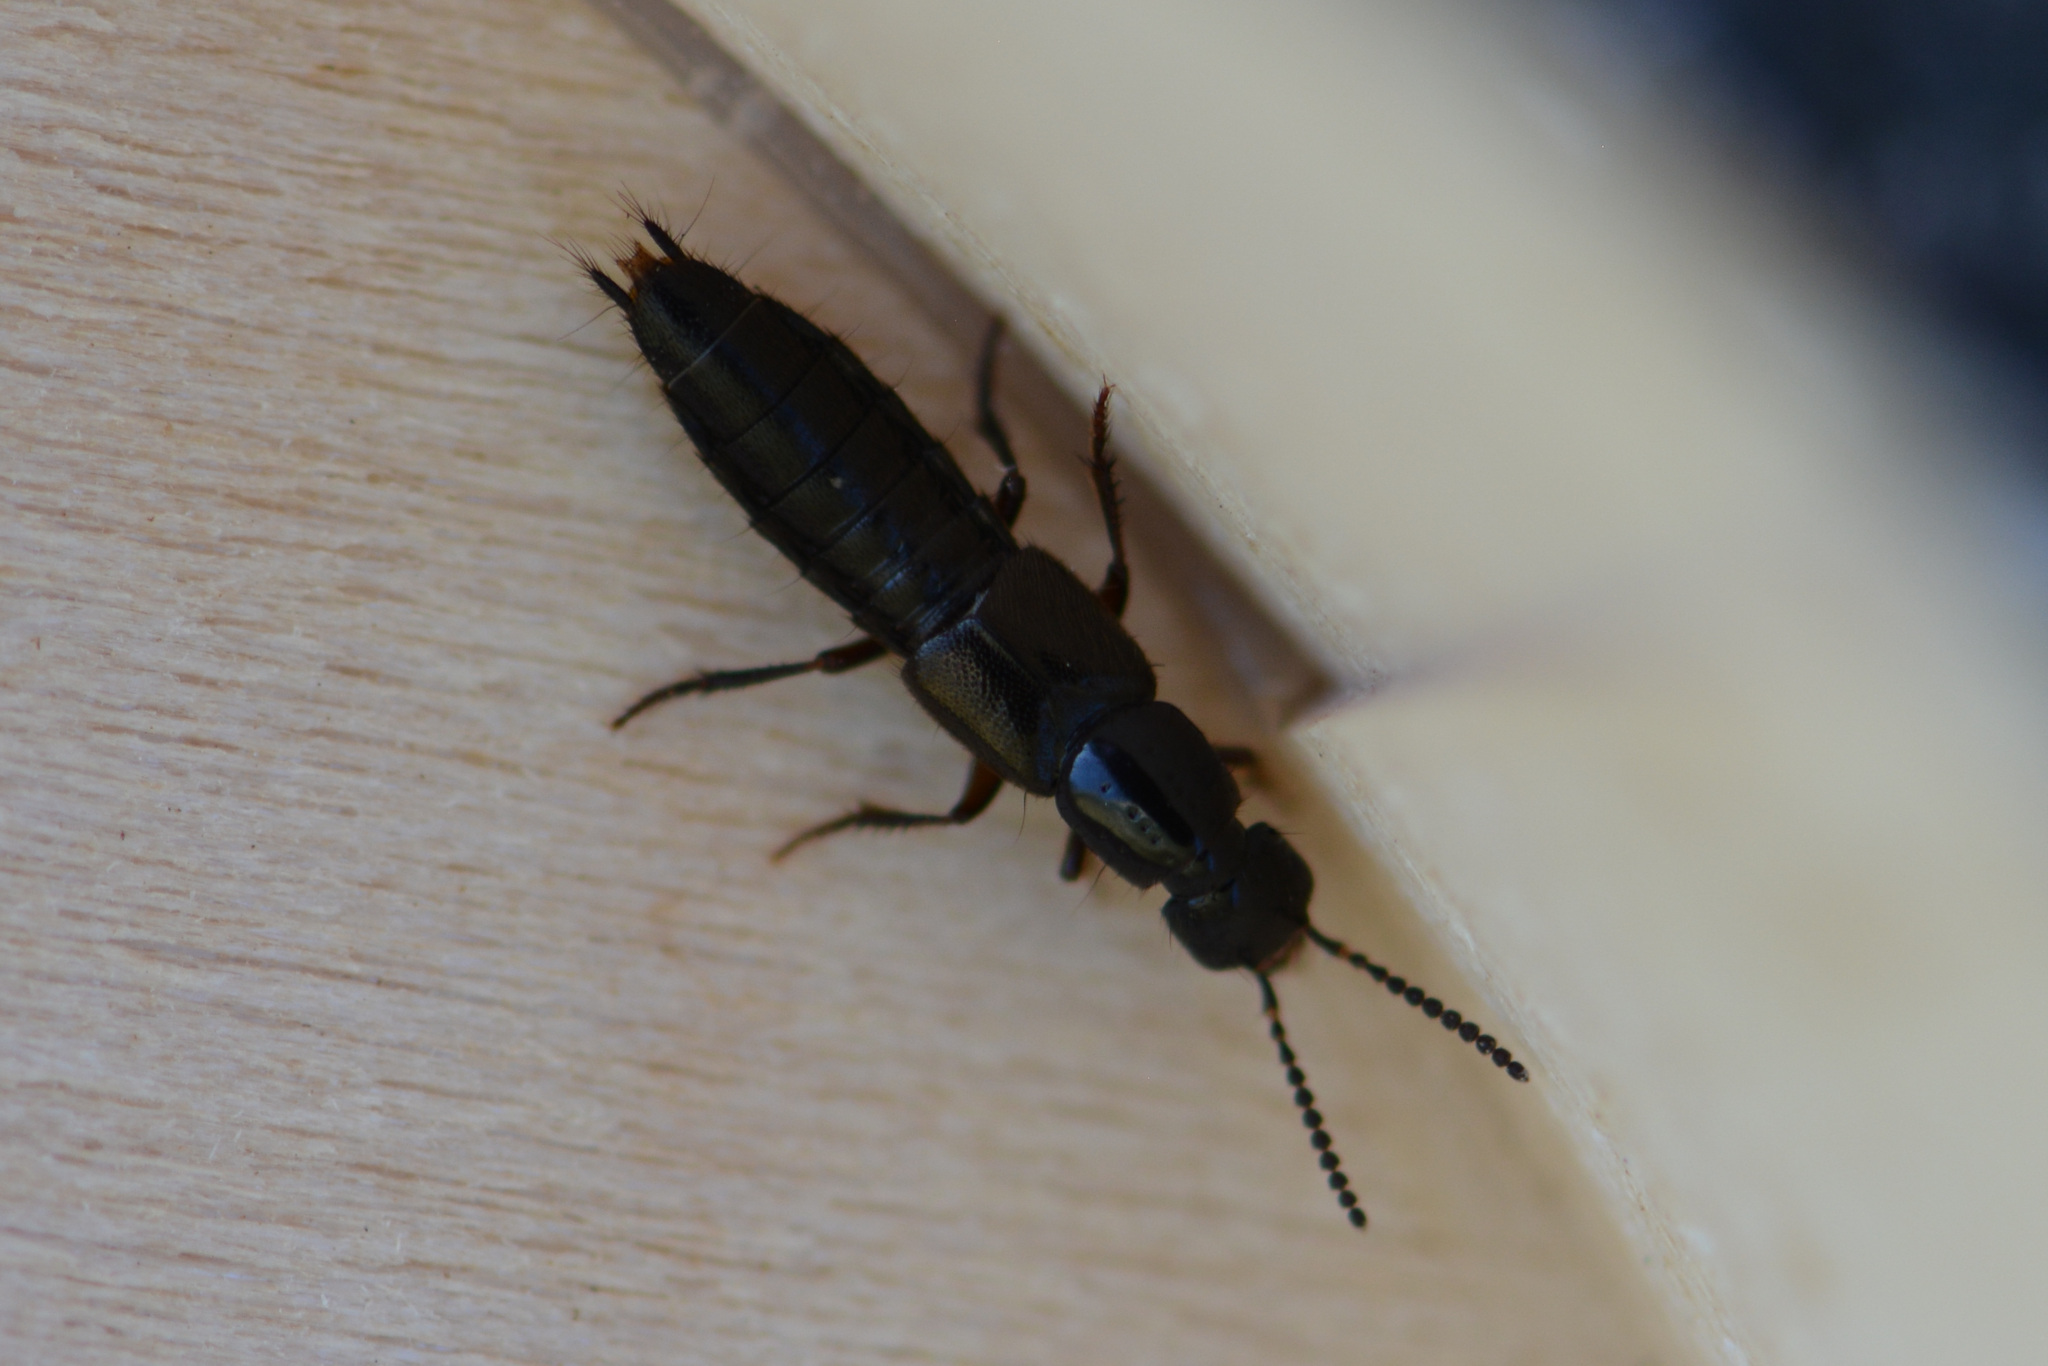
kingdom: Animalia
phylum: Arthropoda
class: Insecta
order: Coleoptera
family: Staphylinidae
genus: Philonthus
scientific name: Philonthus rectangulus
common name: Rove beetle
